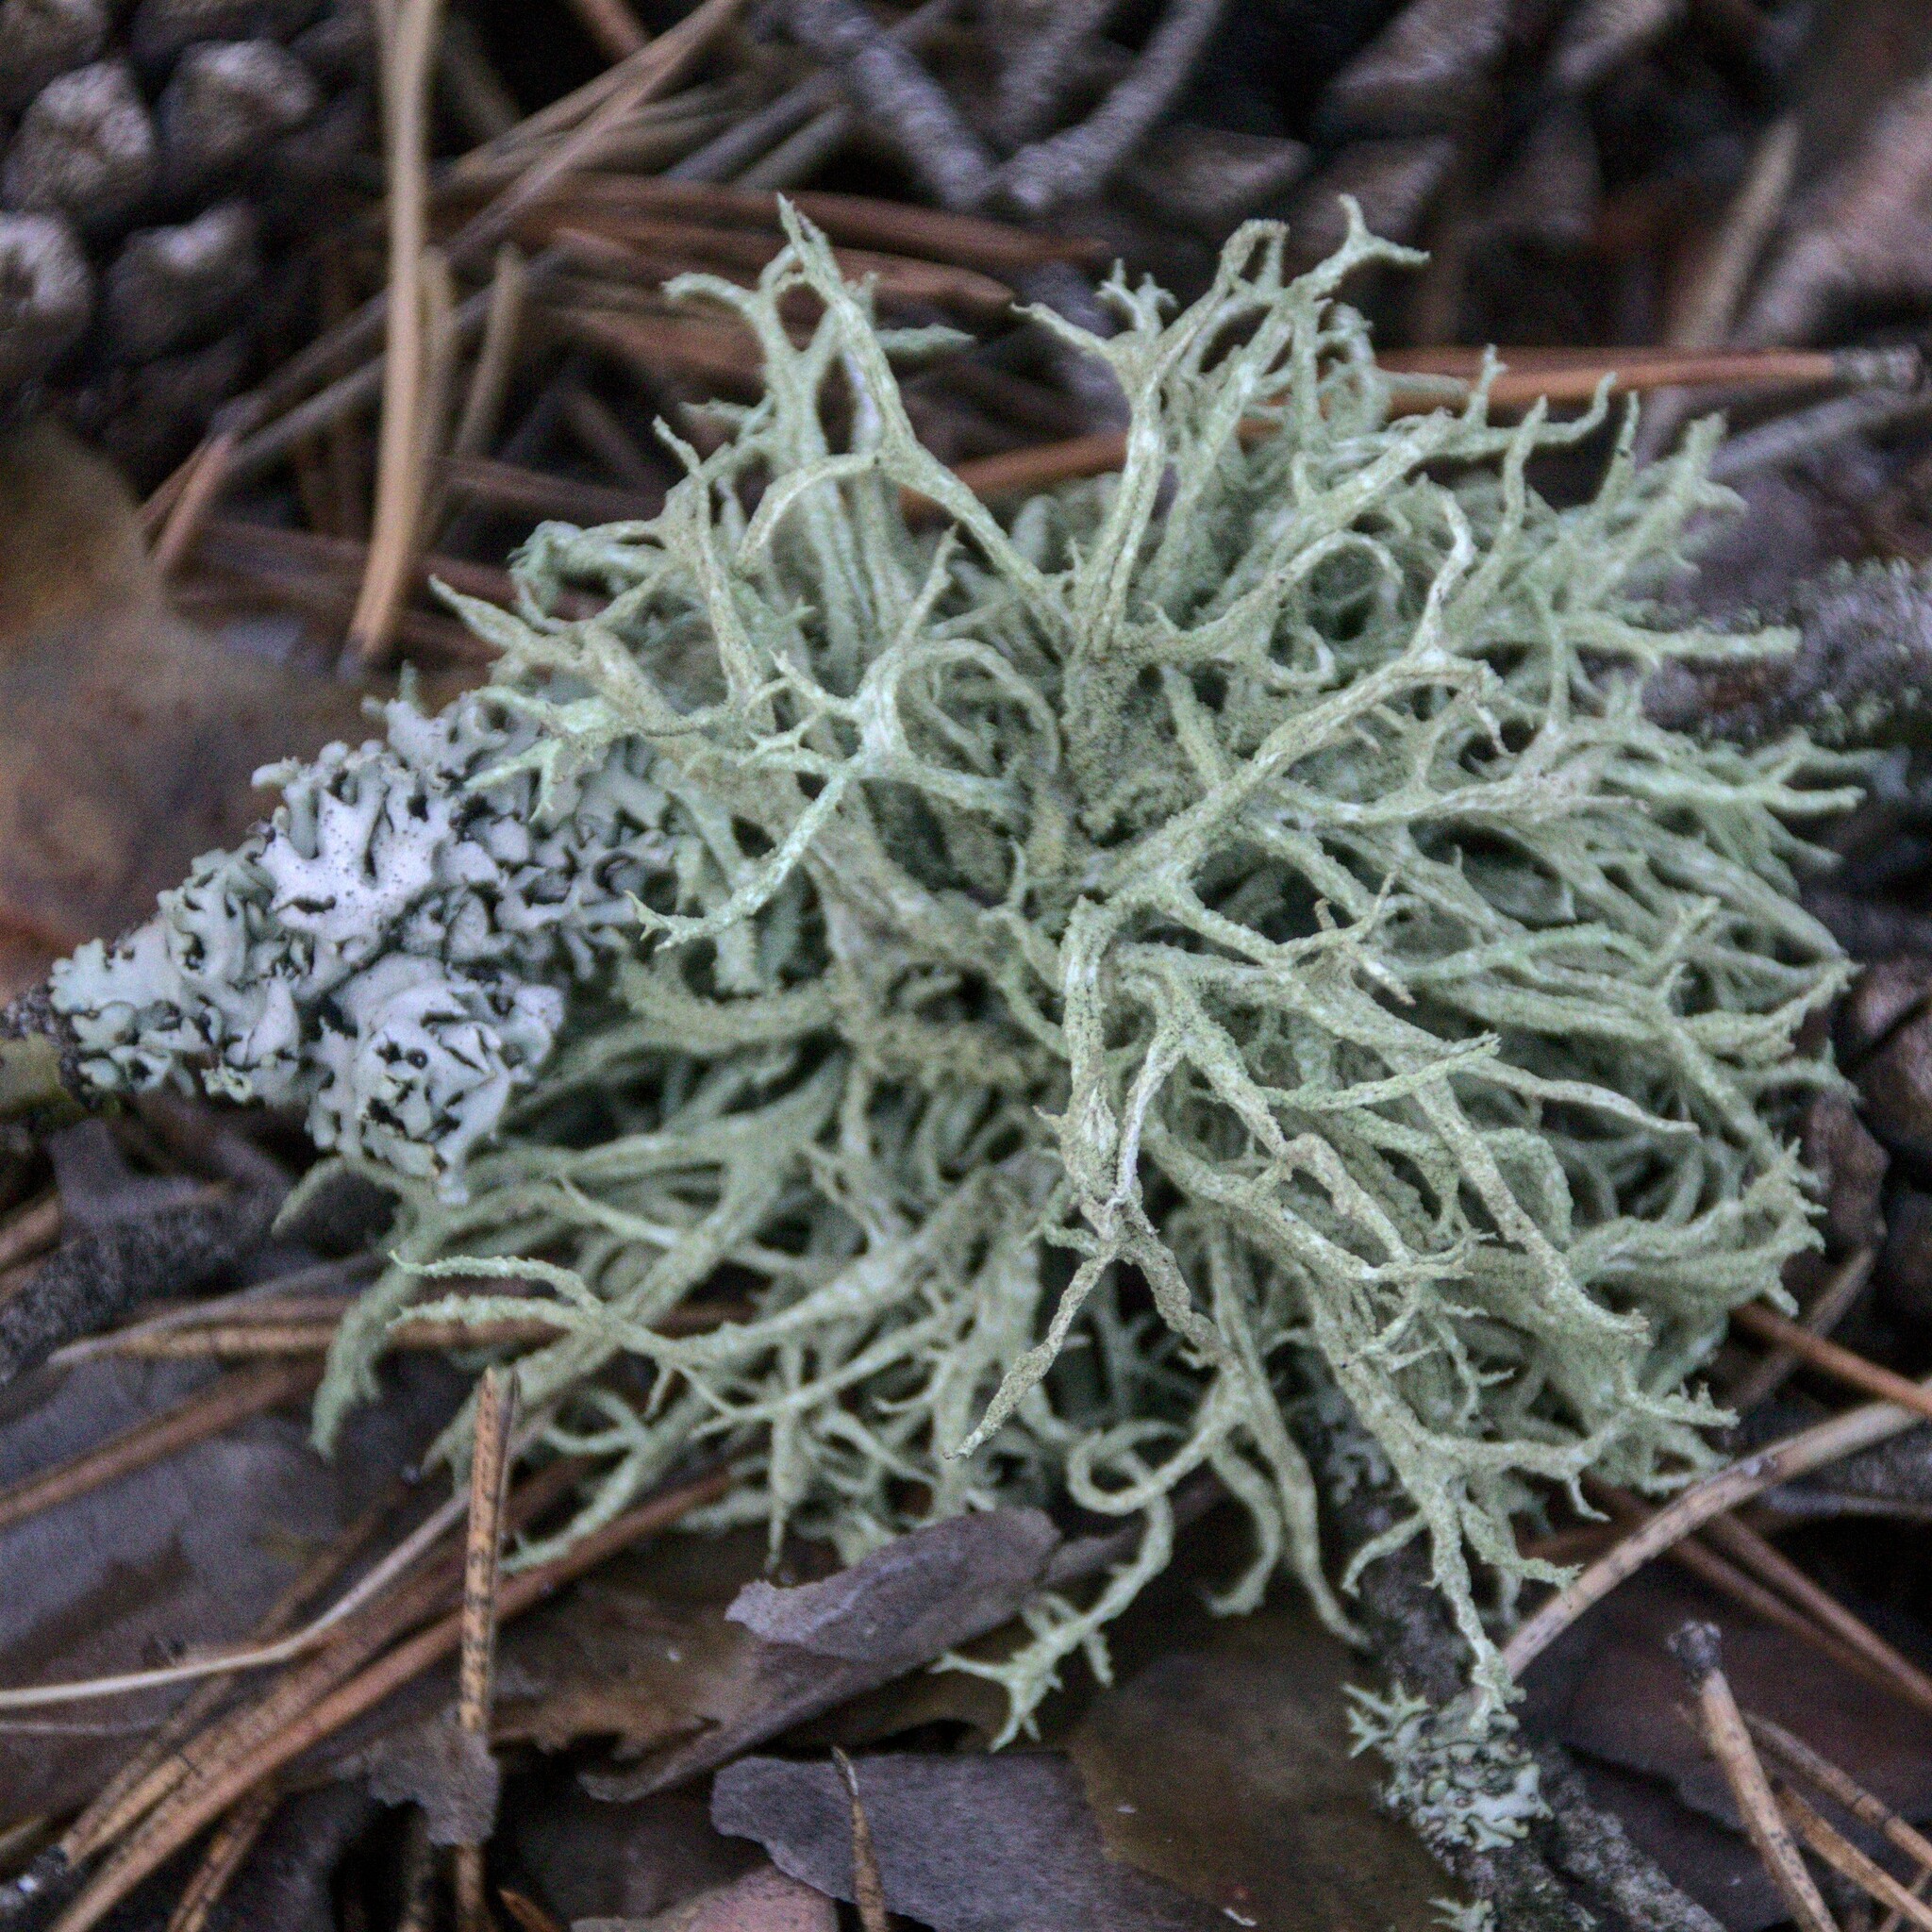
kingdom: Fungi
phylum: Ascomycota
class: Lecanoromycetes
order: Lecanorales
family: Parmeliaceae
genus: Evernia
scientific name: Evernia mesomorpha
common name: Boreal oak moss lichen
